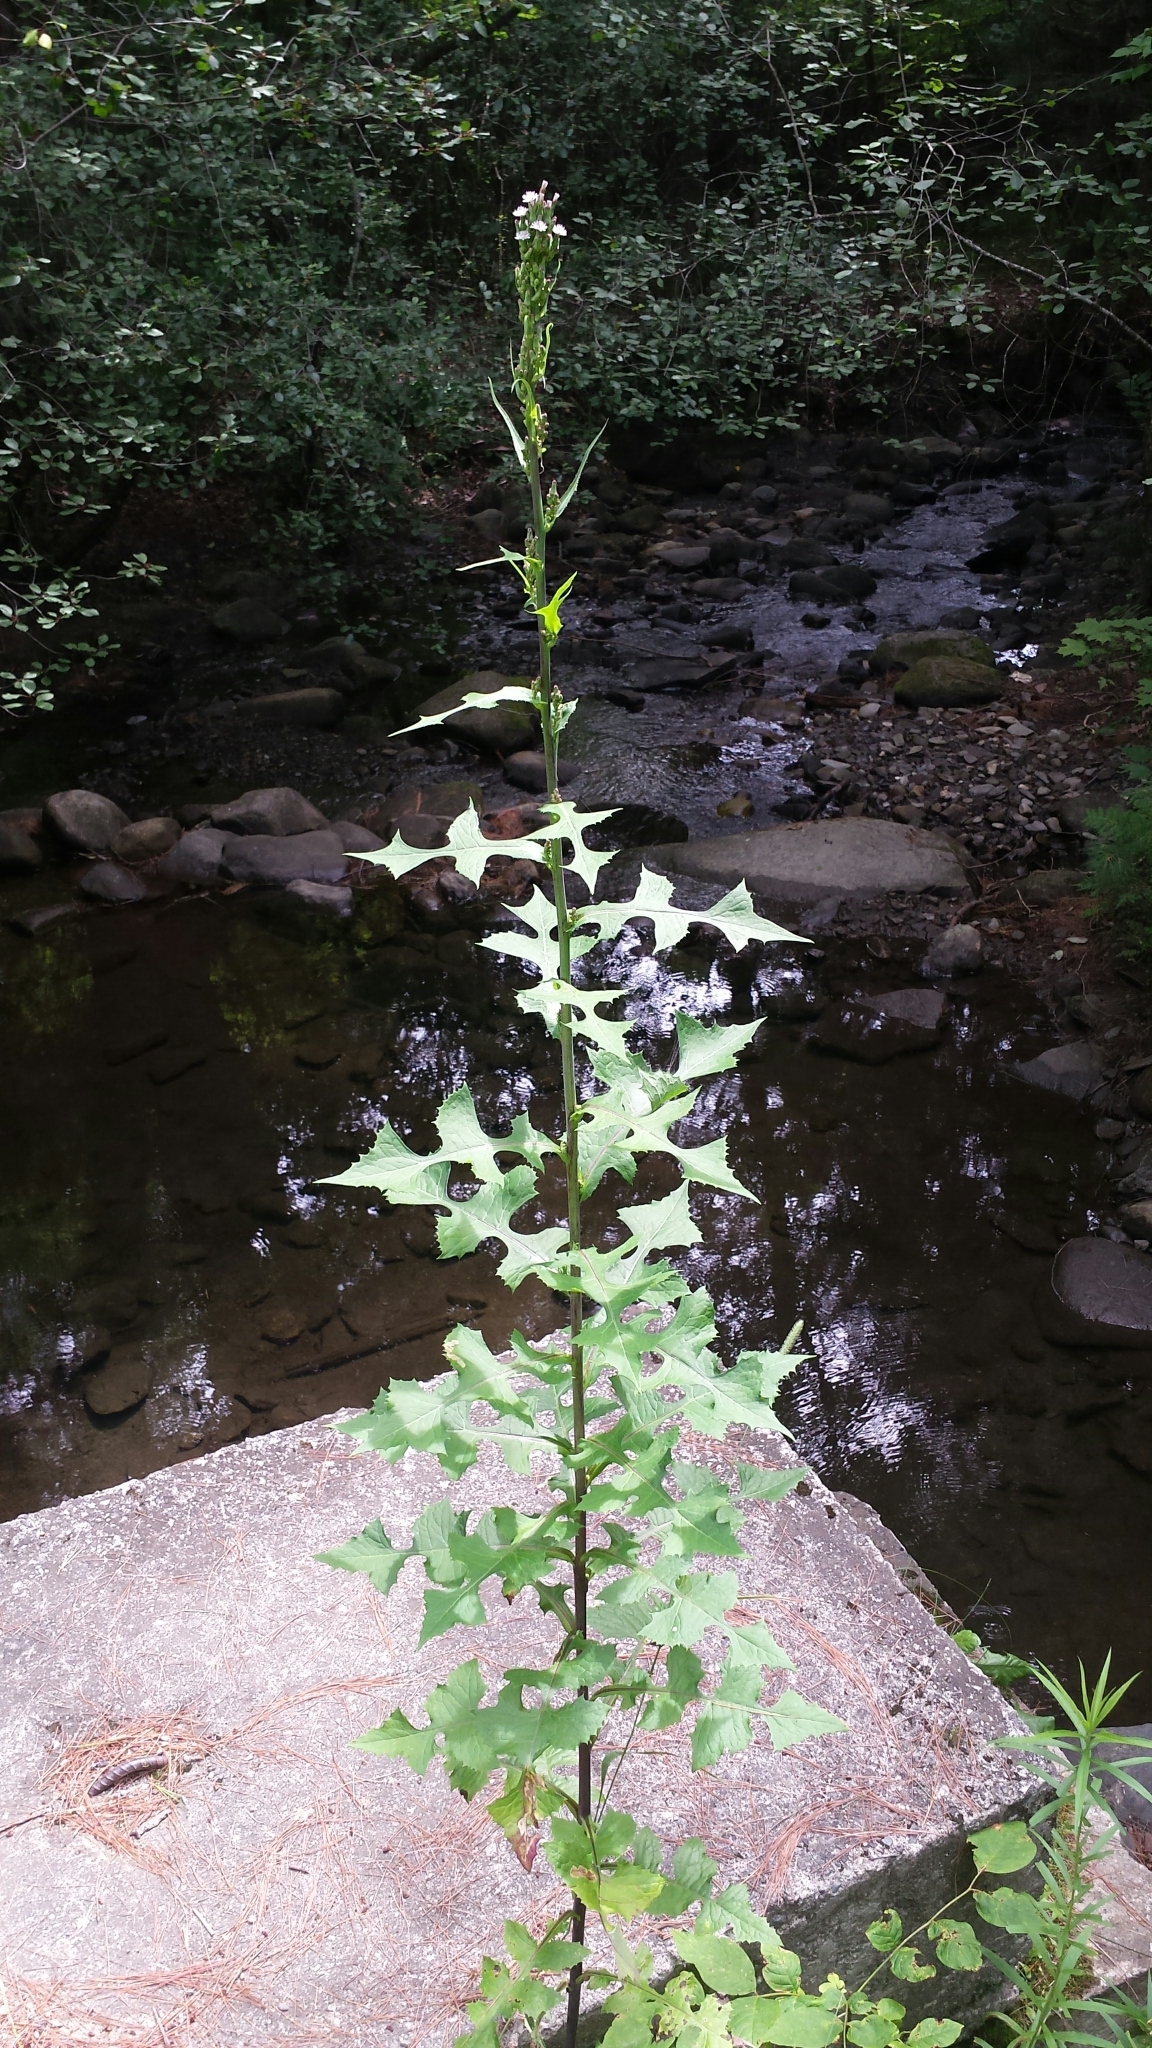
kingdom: Plantae
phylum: Tracheophyta
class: Magnoliopsida
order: Asterales
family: Asteraceae
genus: Lactuca
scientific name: Lactuca biennis
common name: Blue wood lettuce
